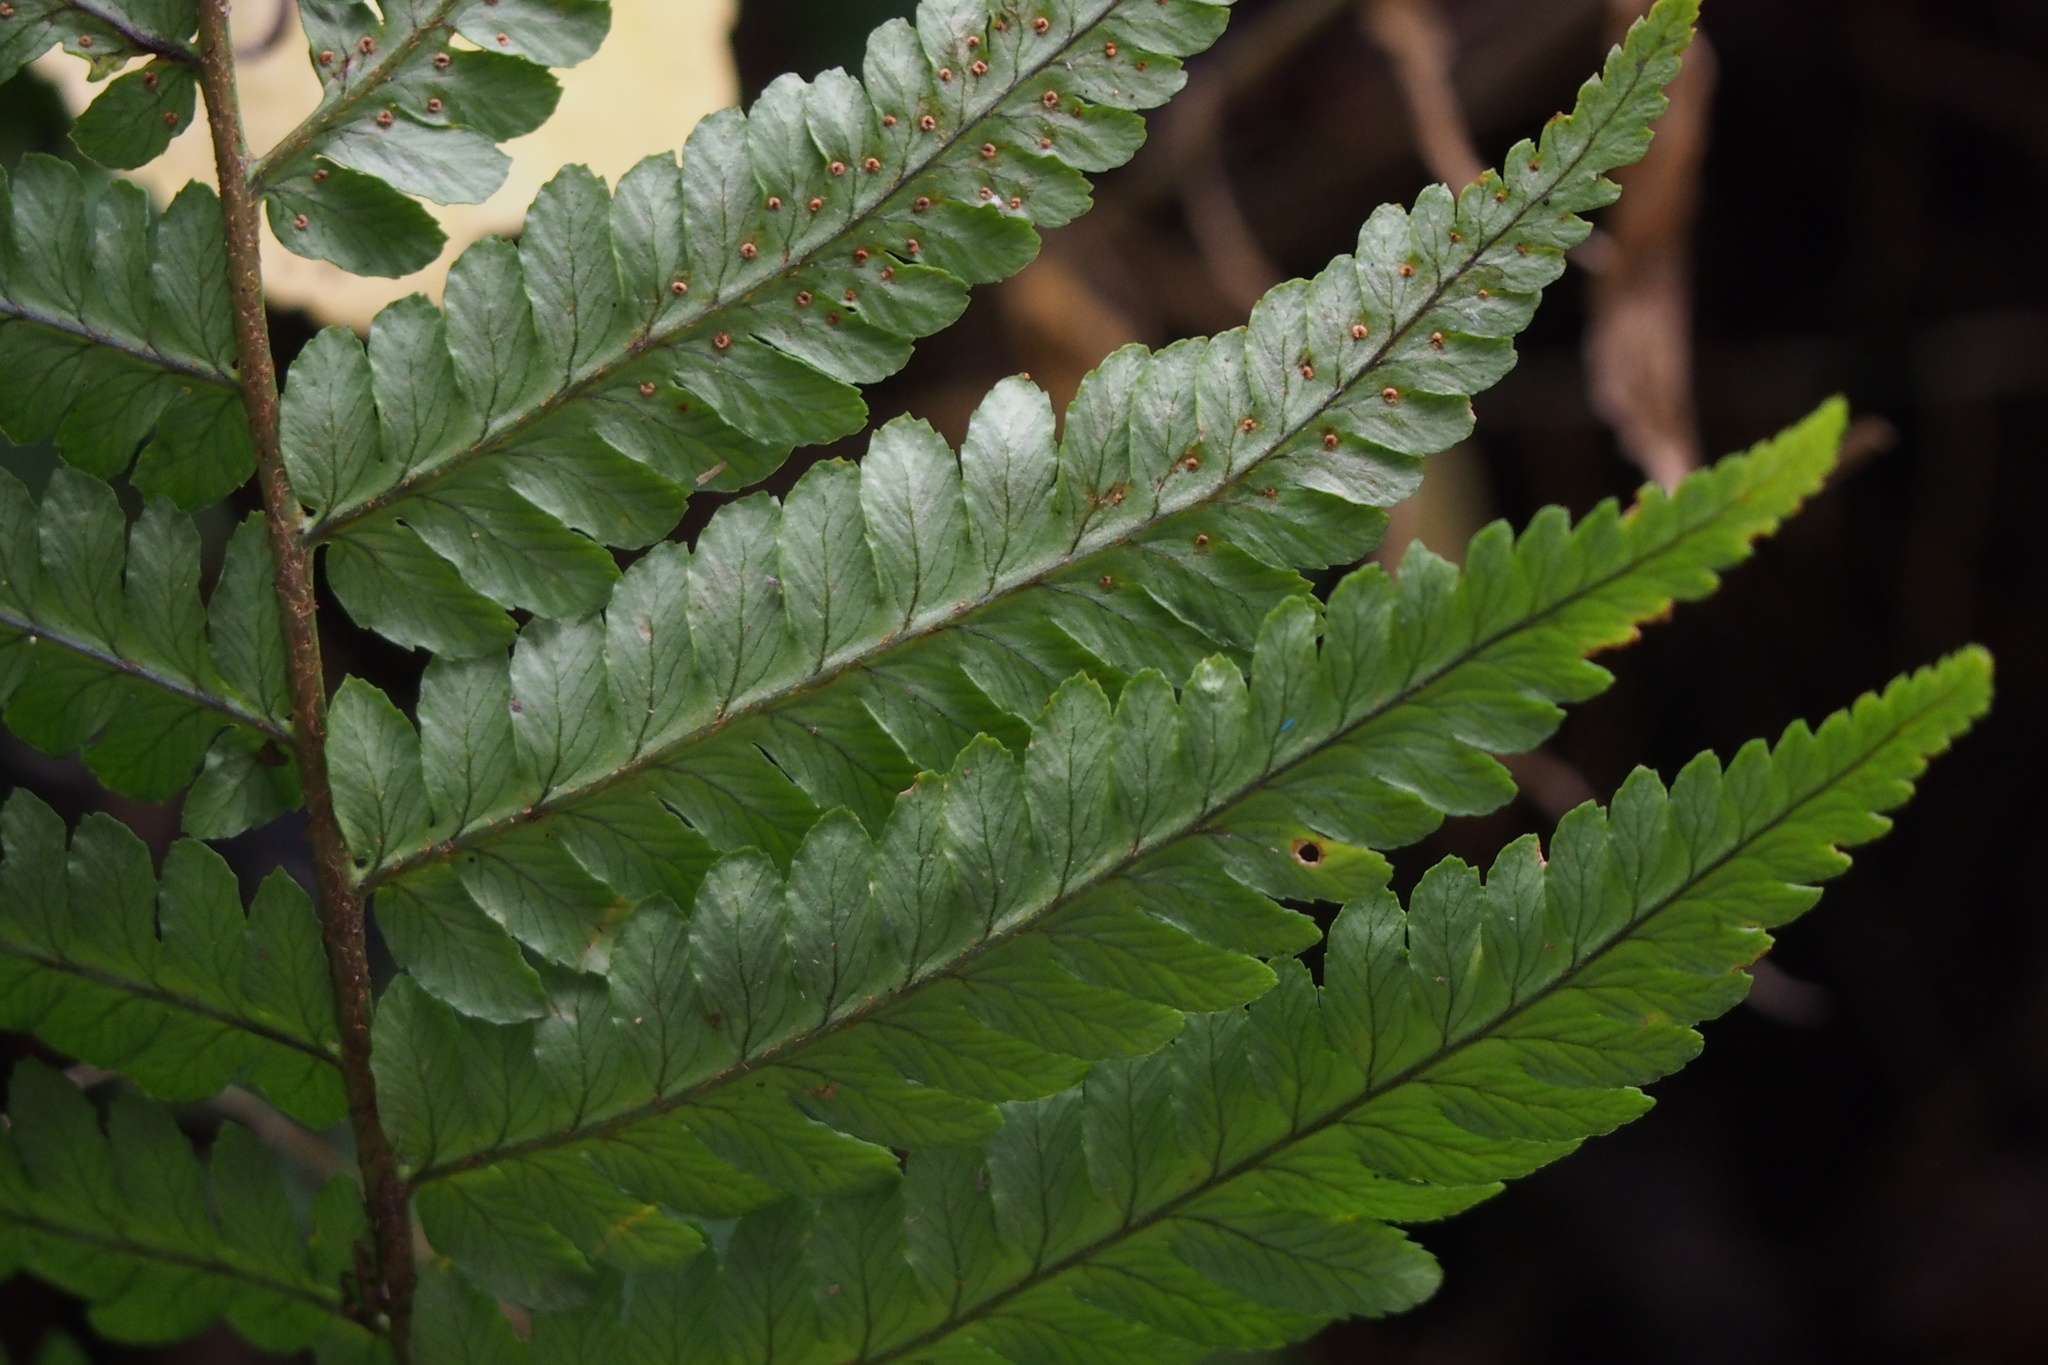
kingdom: Plantae
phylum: Tracheophyta
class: Polypodiopsida
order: Polypodiales
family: Dryopteridaceae
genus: Dryopteris
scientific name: Dryopteris uniformis
